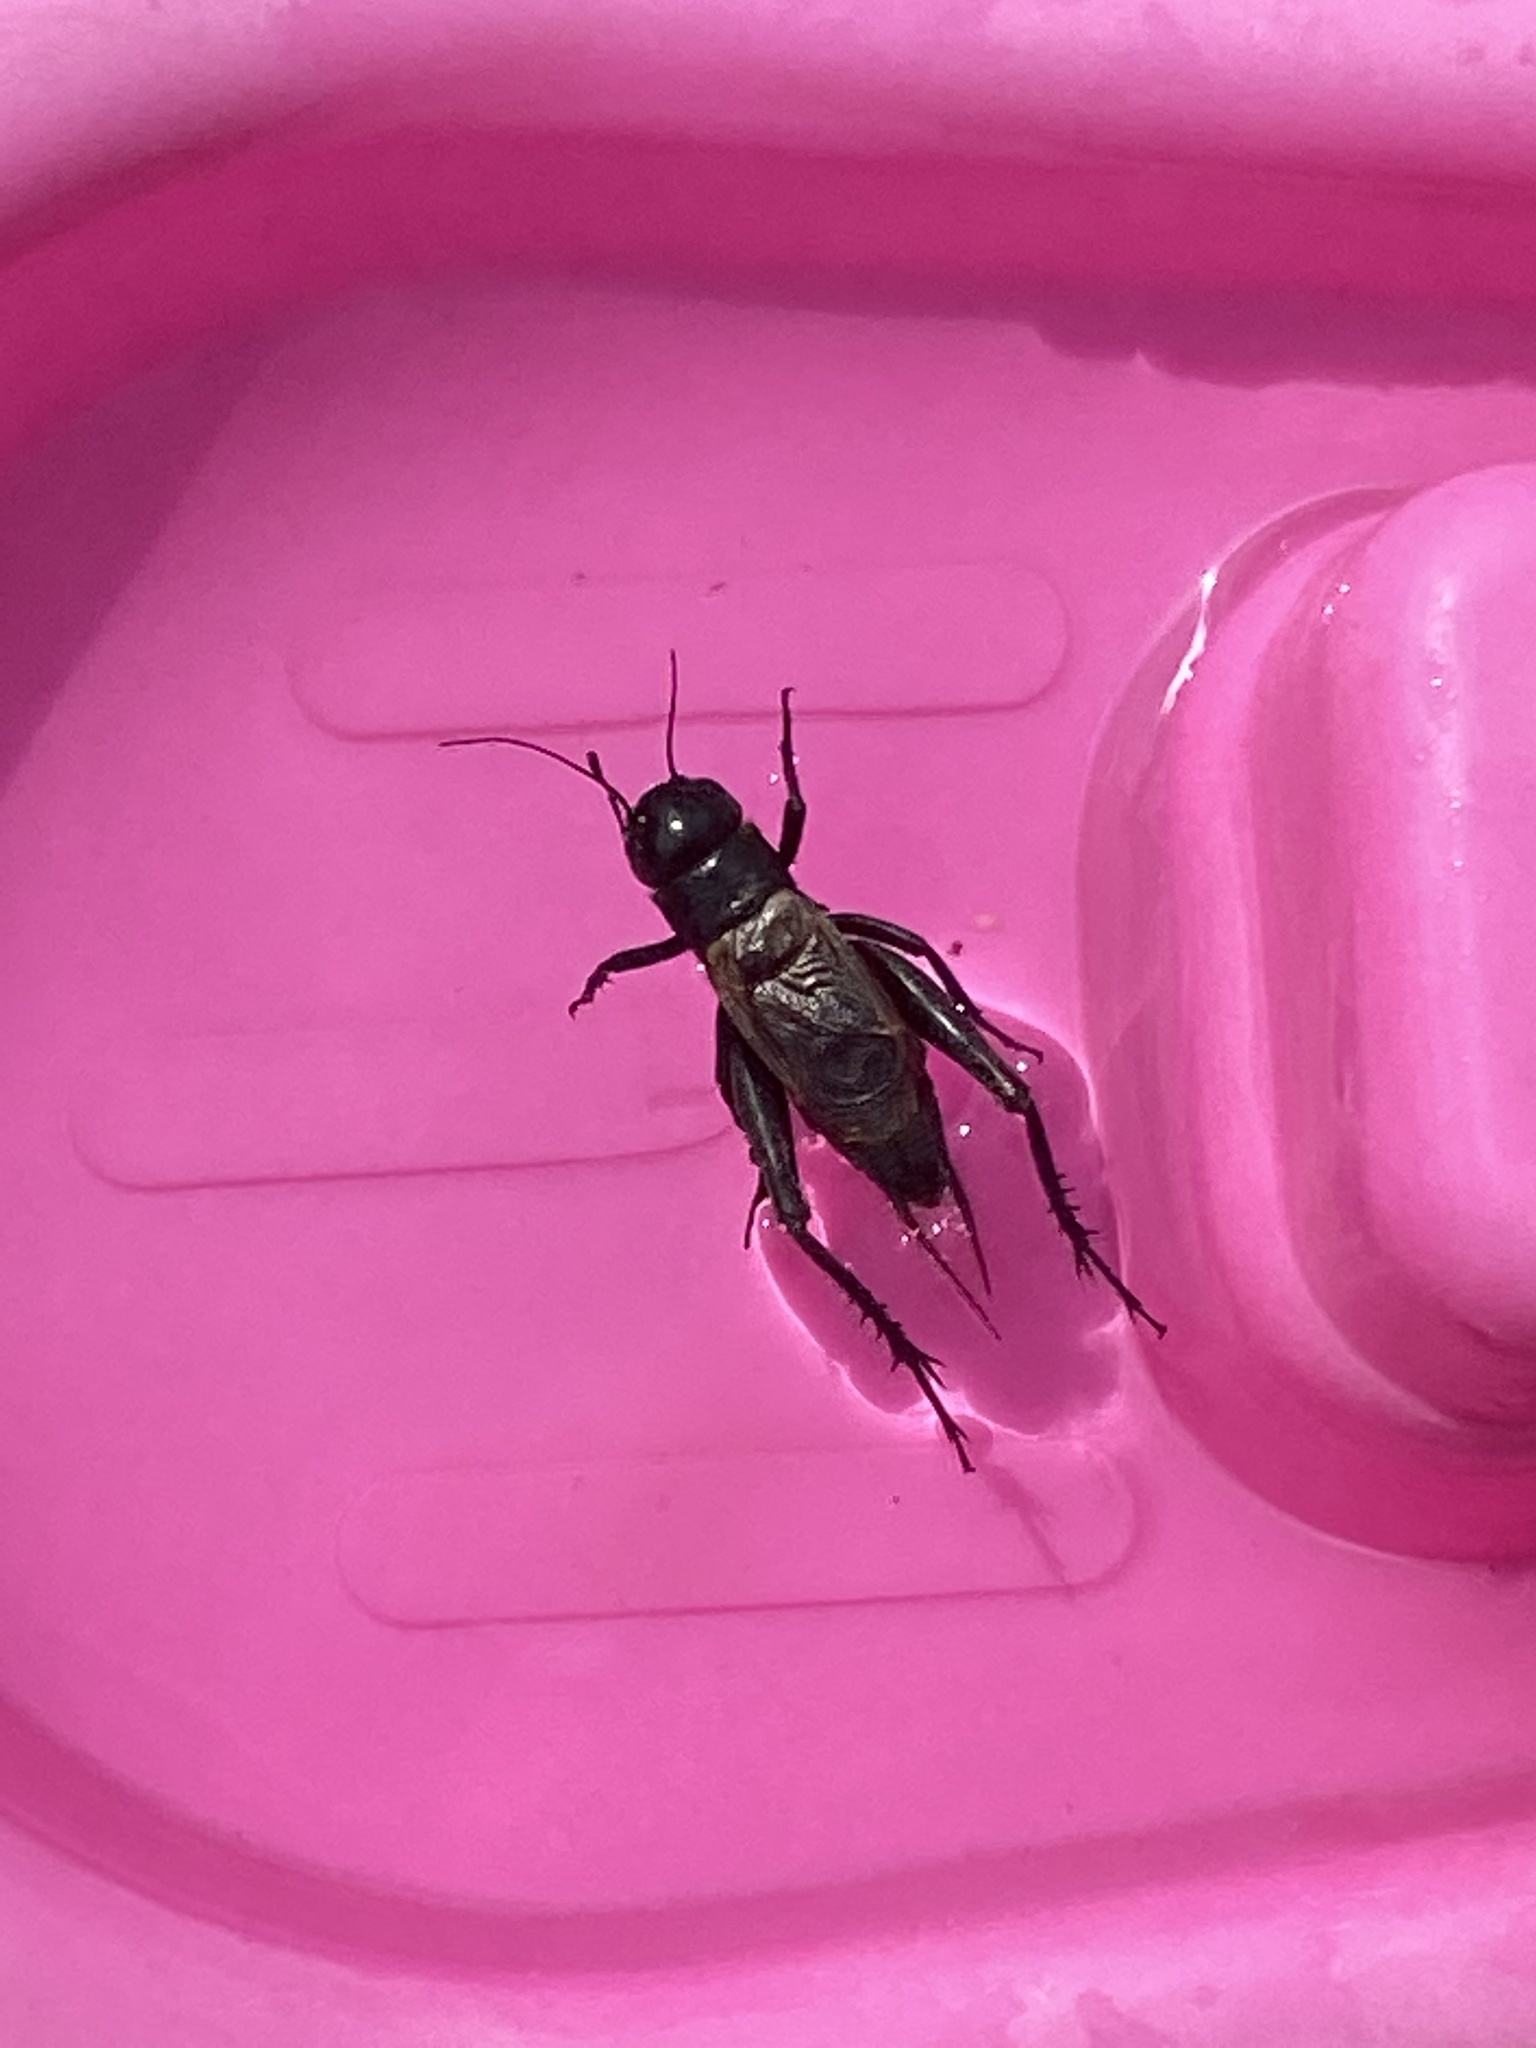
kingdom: Animalia
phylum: Arthropoda
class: Insecta
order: Orthoptera
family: Gryllidae
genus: Gryllus
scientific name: Gryllus pennsylvanicus
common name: Fall field cricket
